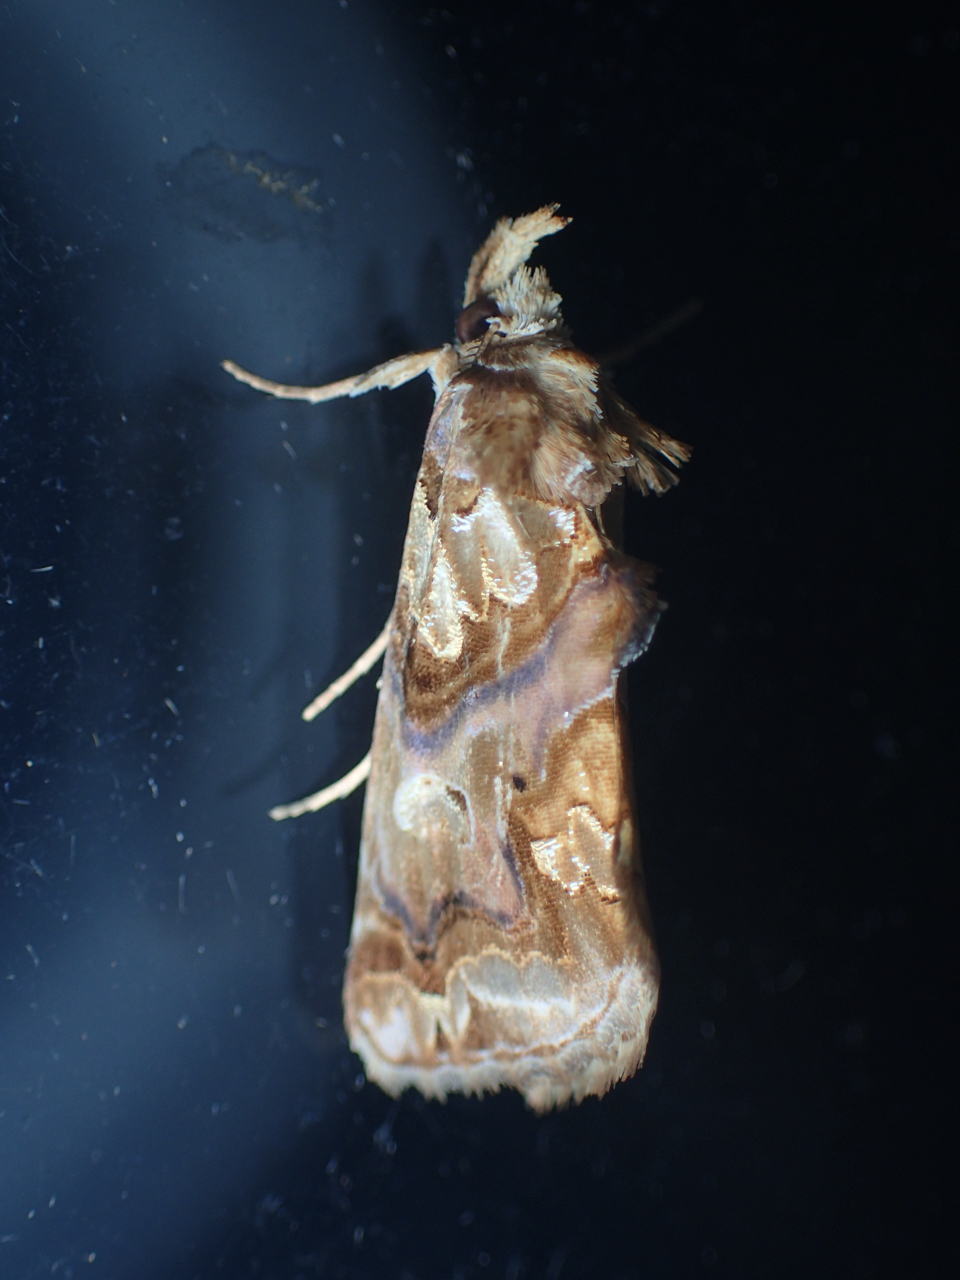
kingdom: Animalia
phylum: Arthropoda
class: Insecta
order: Lepidoptera
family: Erebidae
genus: Plusiodonta
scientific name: Plusiodonta compressipalpis
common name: Moonseed moth
